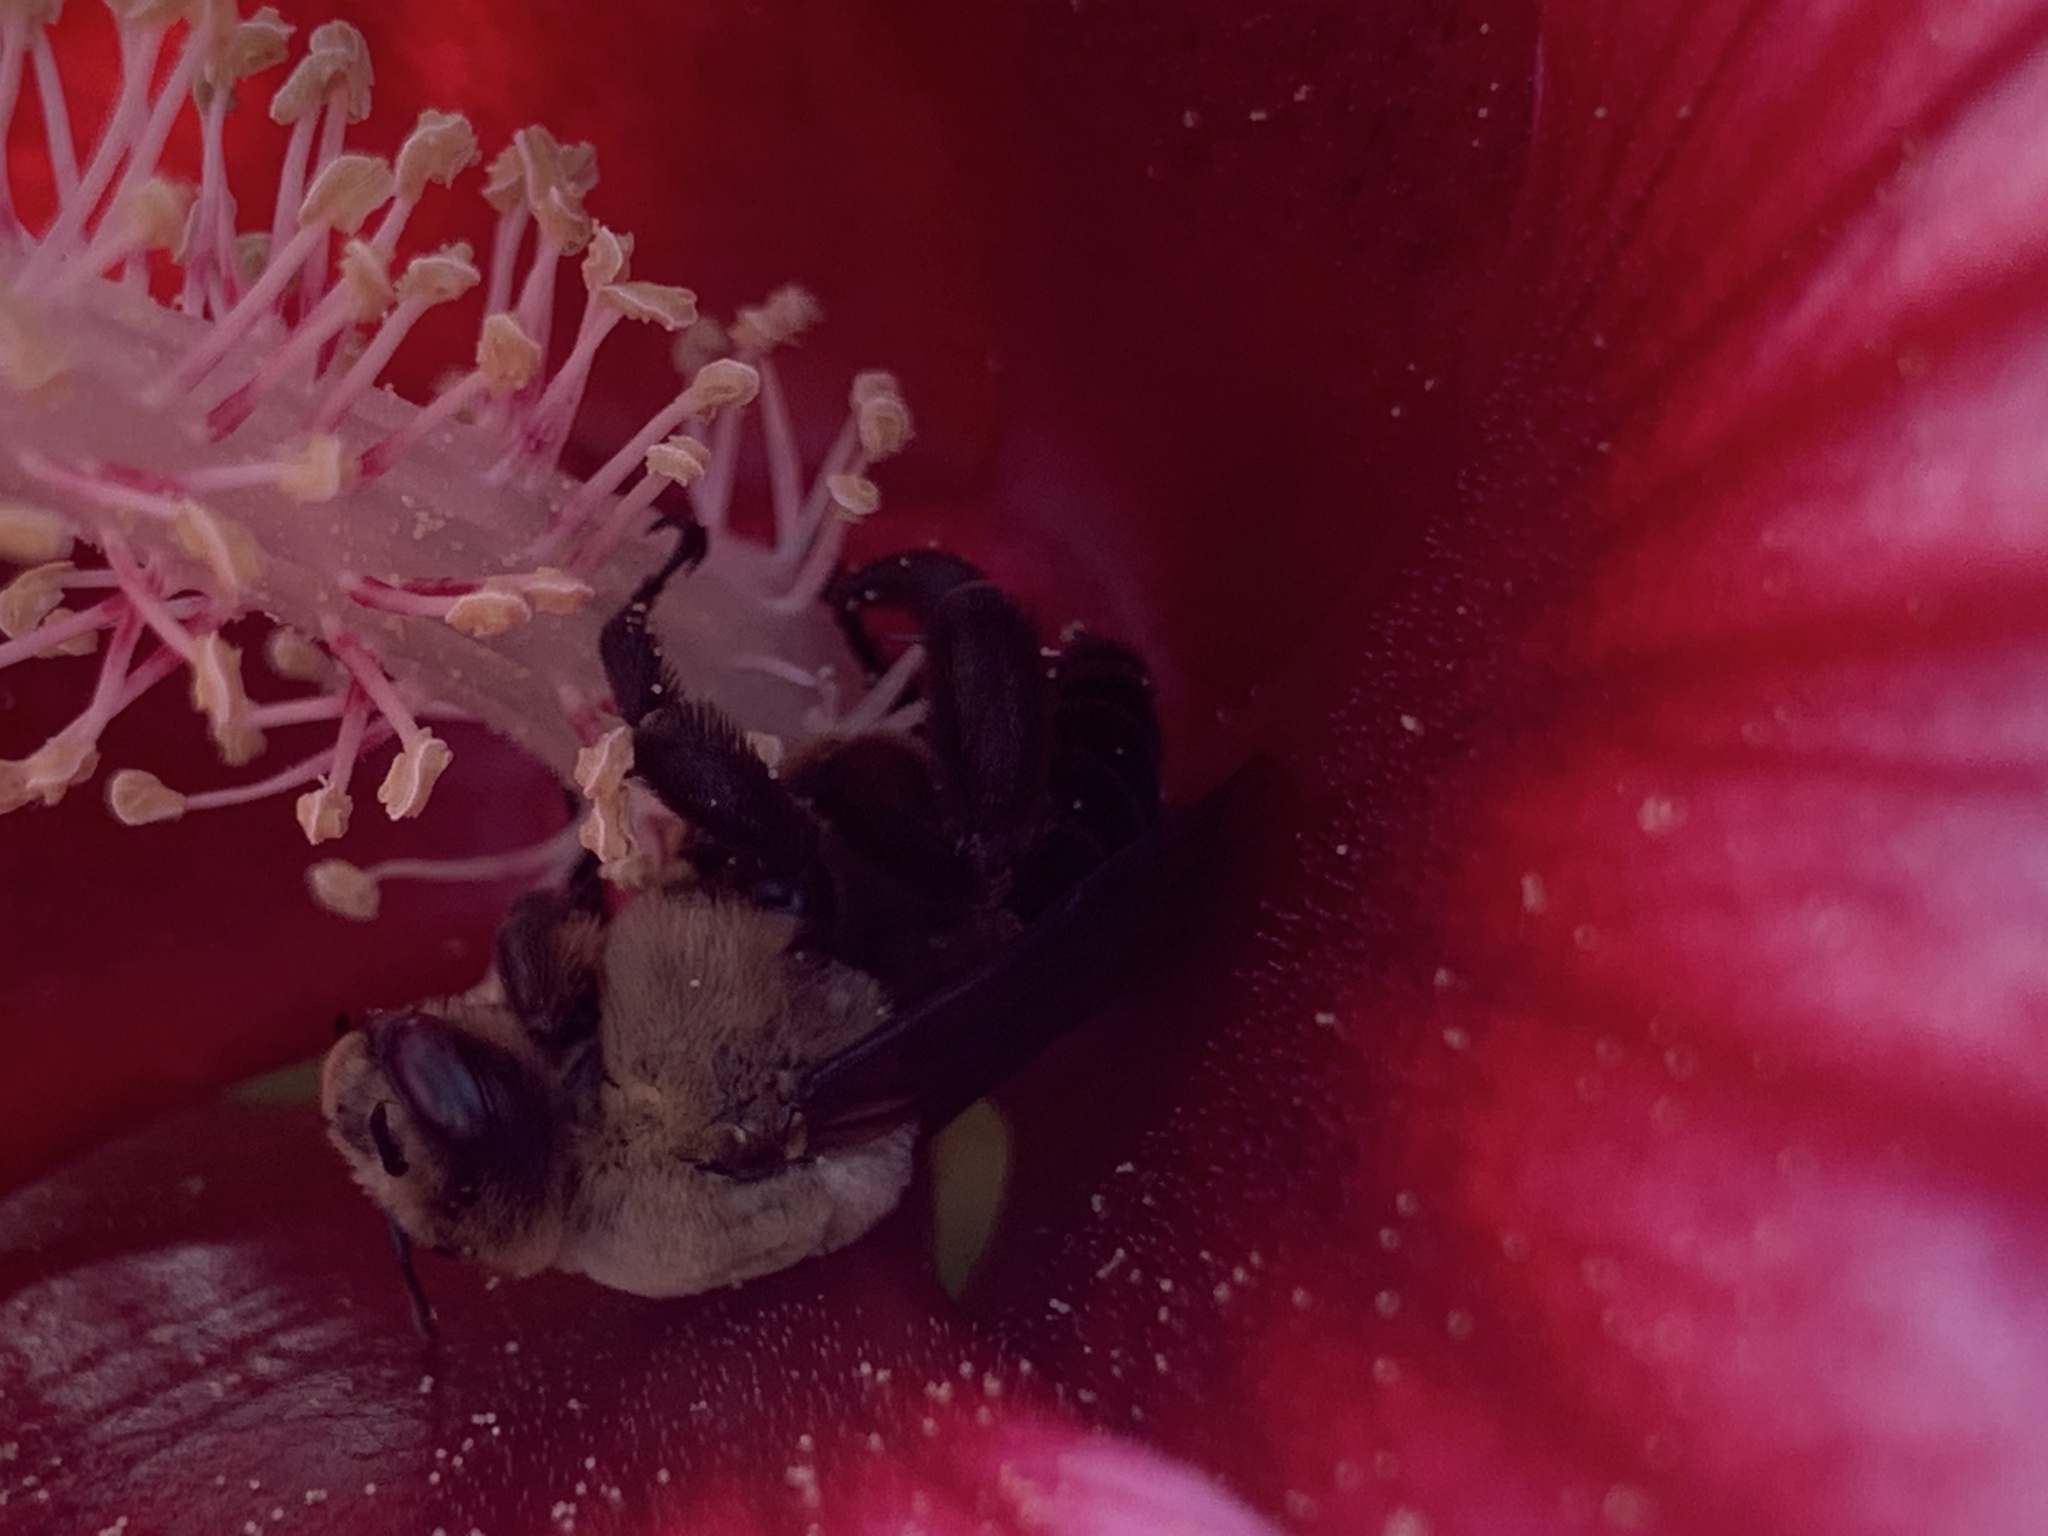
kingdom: Animalia
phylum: Arthropoda
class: Insecta
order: Hymenoptera
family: Apidae
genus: Ptilothrix
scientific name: Ptilothrix bombiformis
